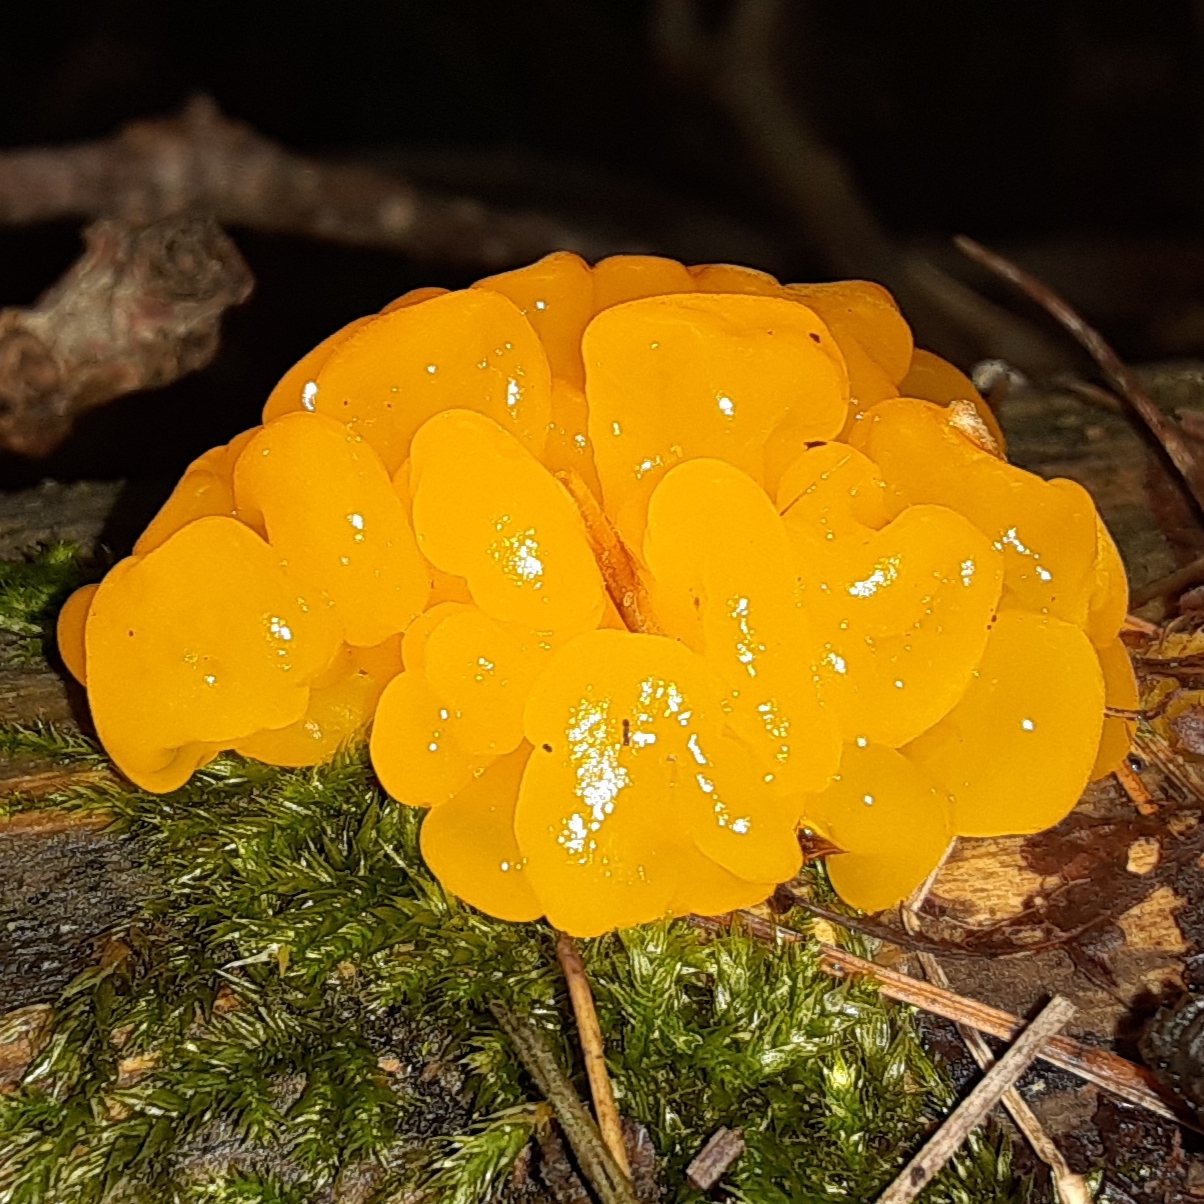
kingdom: Fungi
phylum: Basidiomycota
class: Dacrymycetes
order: Dacrymycetales
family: Dacrymycetaceae
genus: Dacrymyces
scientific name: Dacrymyces chrysospermus
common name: Orange jelly spot
